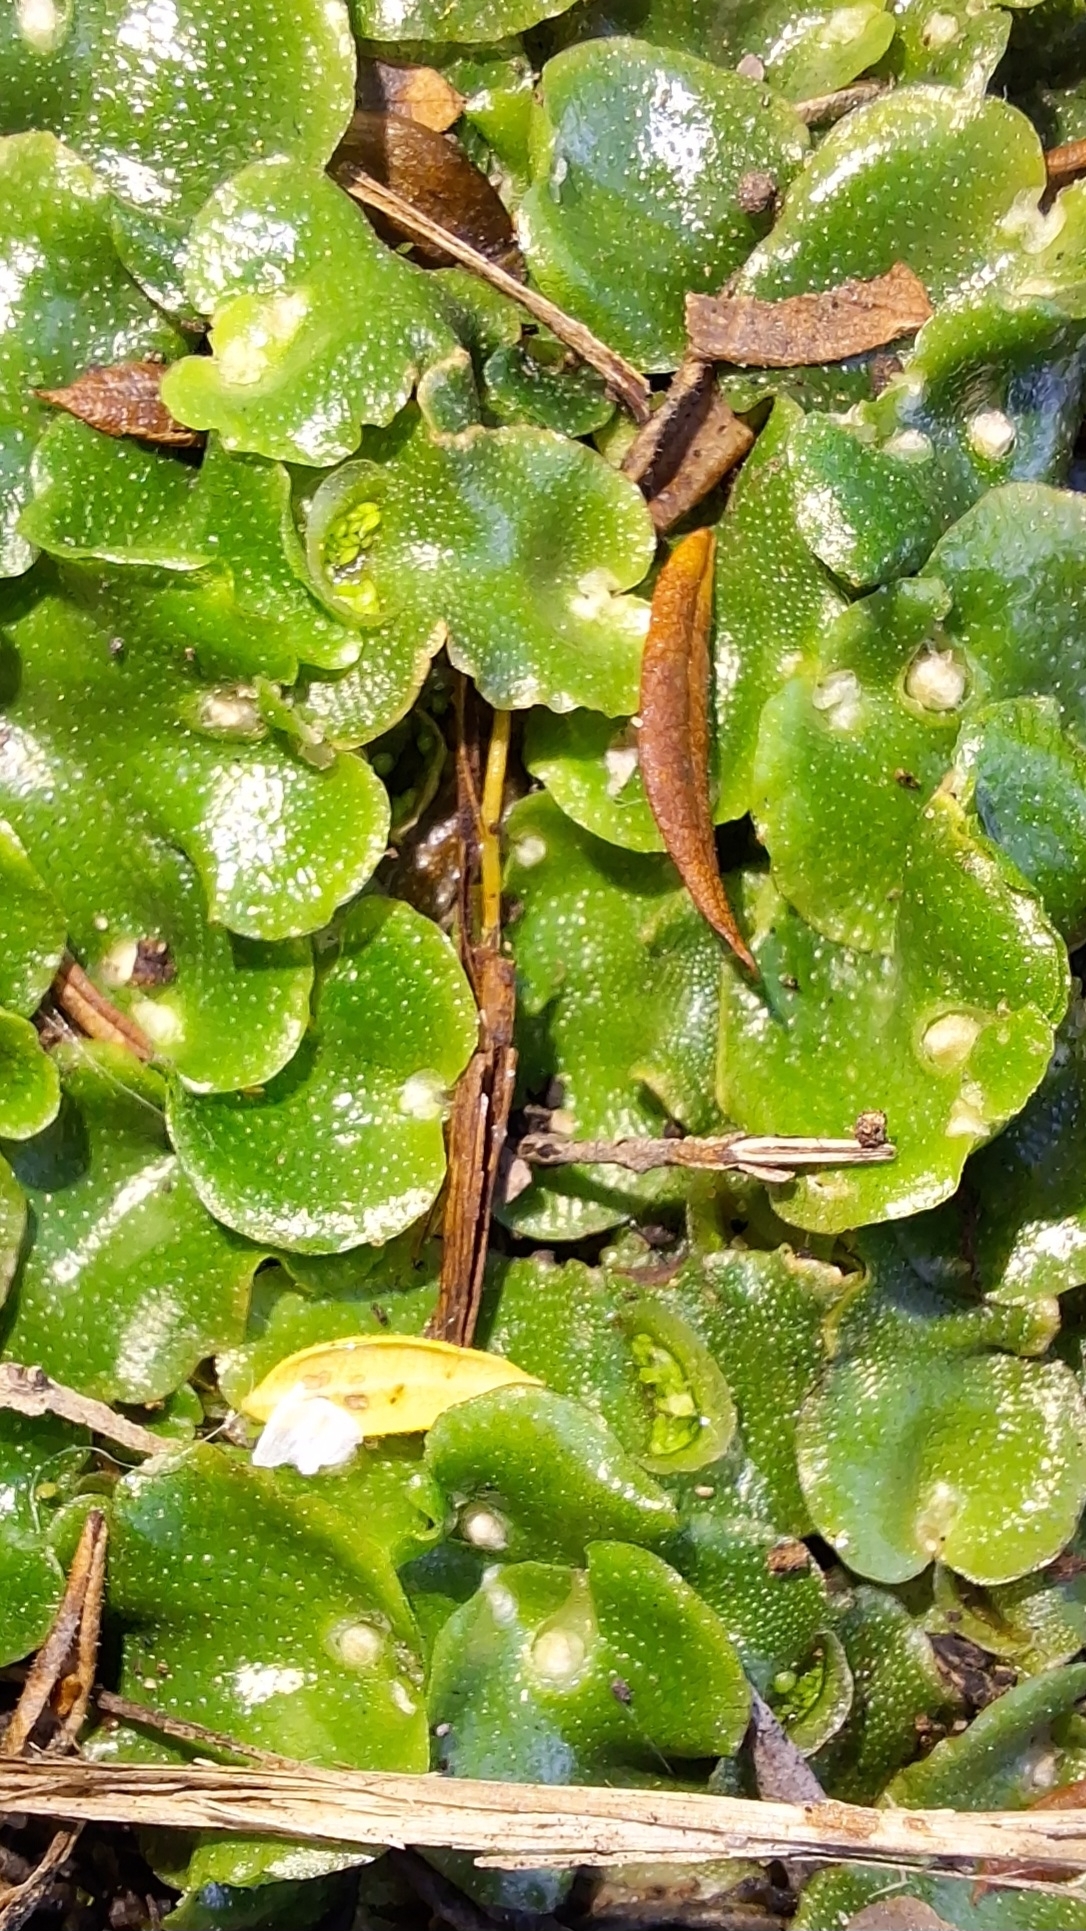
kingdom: Plantae
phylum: Marchantiophyta
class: Marchantiopsida
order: Lunulariales
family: Lunulariaceae
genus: Lunularia
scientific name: Lunularia cruciata
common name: Crescent-cup liverwort
